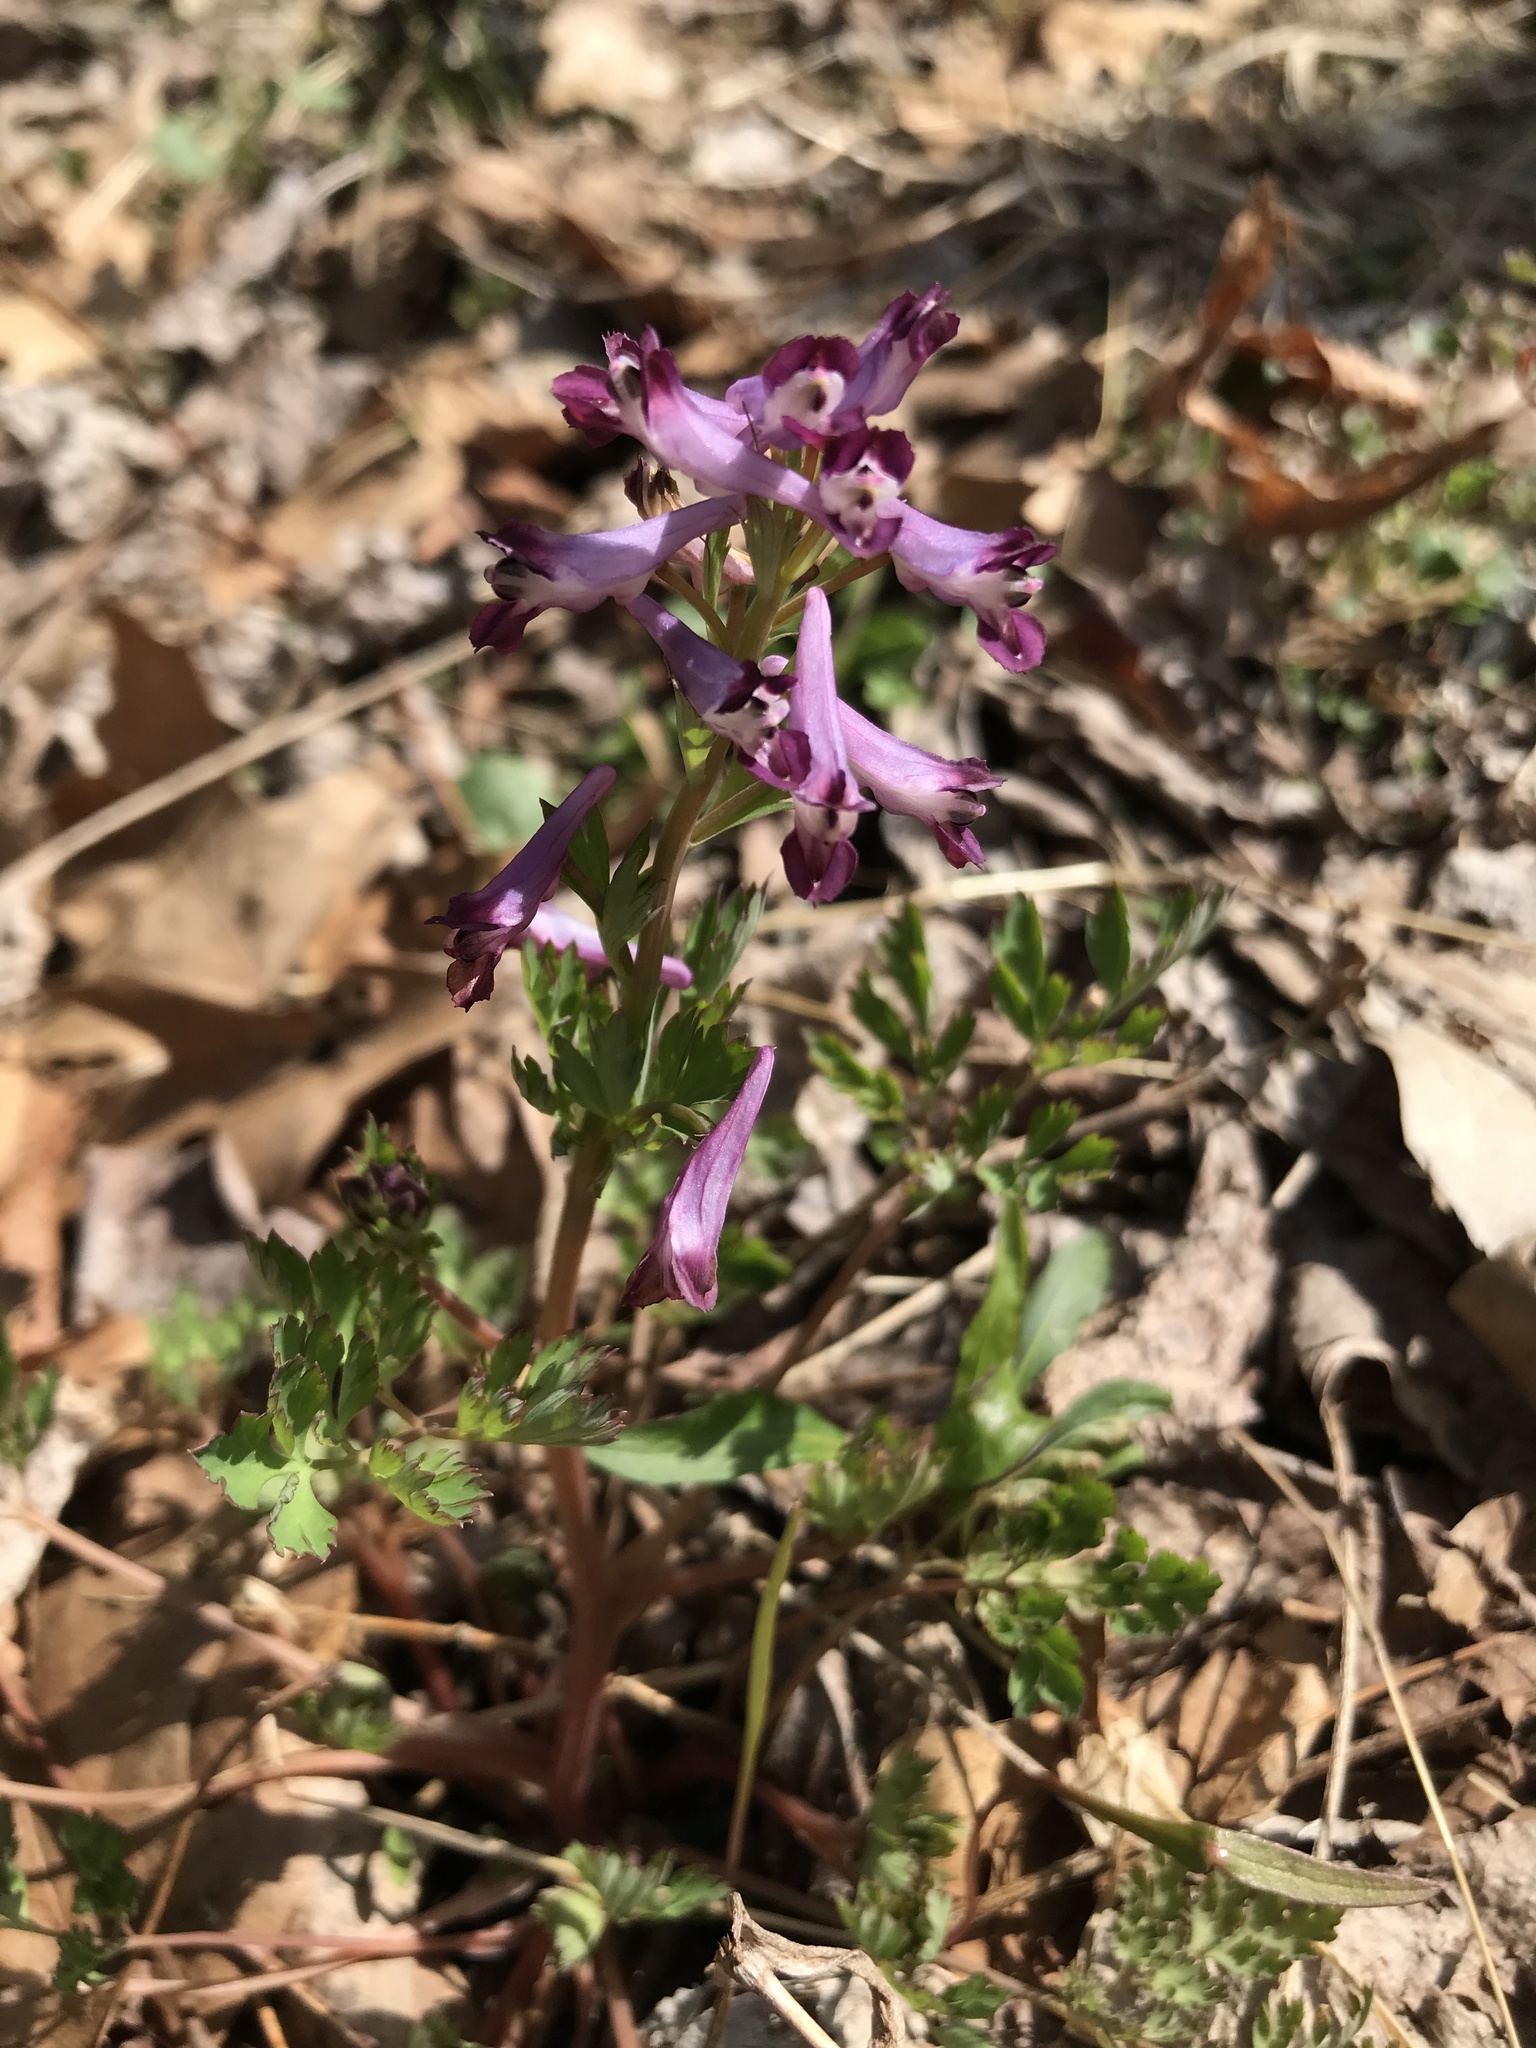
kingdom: Plantae
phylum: Tracheophyta
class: Magnoliopsida
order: Ranunculales
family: Papaveraceae
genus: Corydalis
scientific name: Corydalis incisa
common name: Incised fumewort
